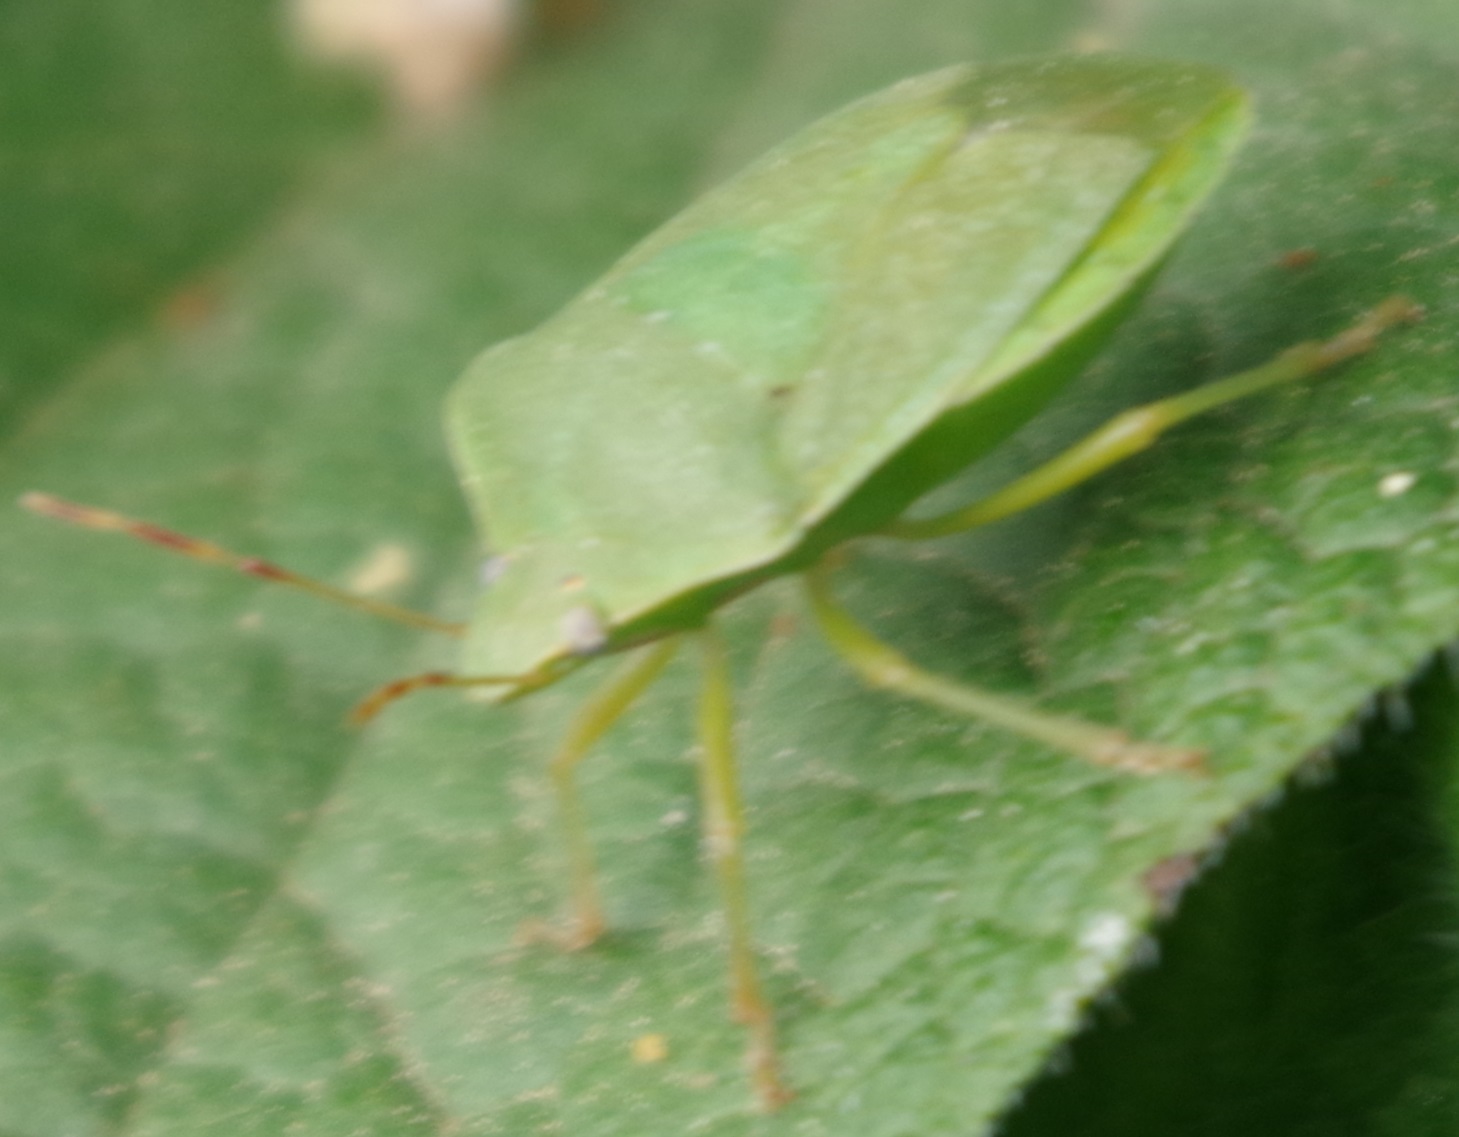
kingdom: Animalia
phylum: Arthropoda
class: Insecta
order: Hemiptera
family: Pentatomidae
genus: Nezara
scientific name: Nezara viridula
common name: Southern green stink bug
